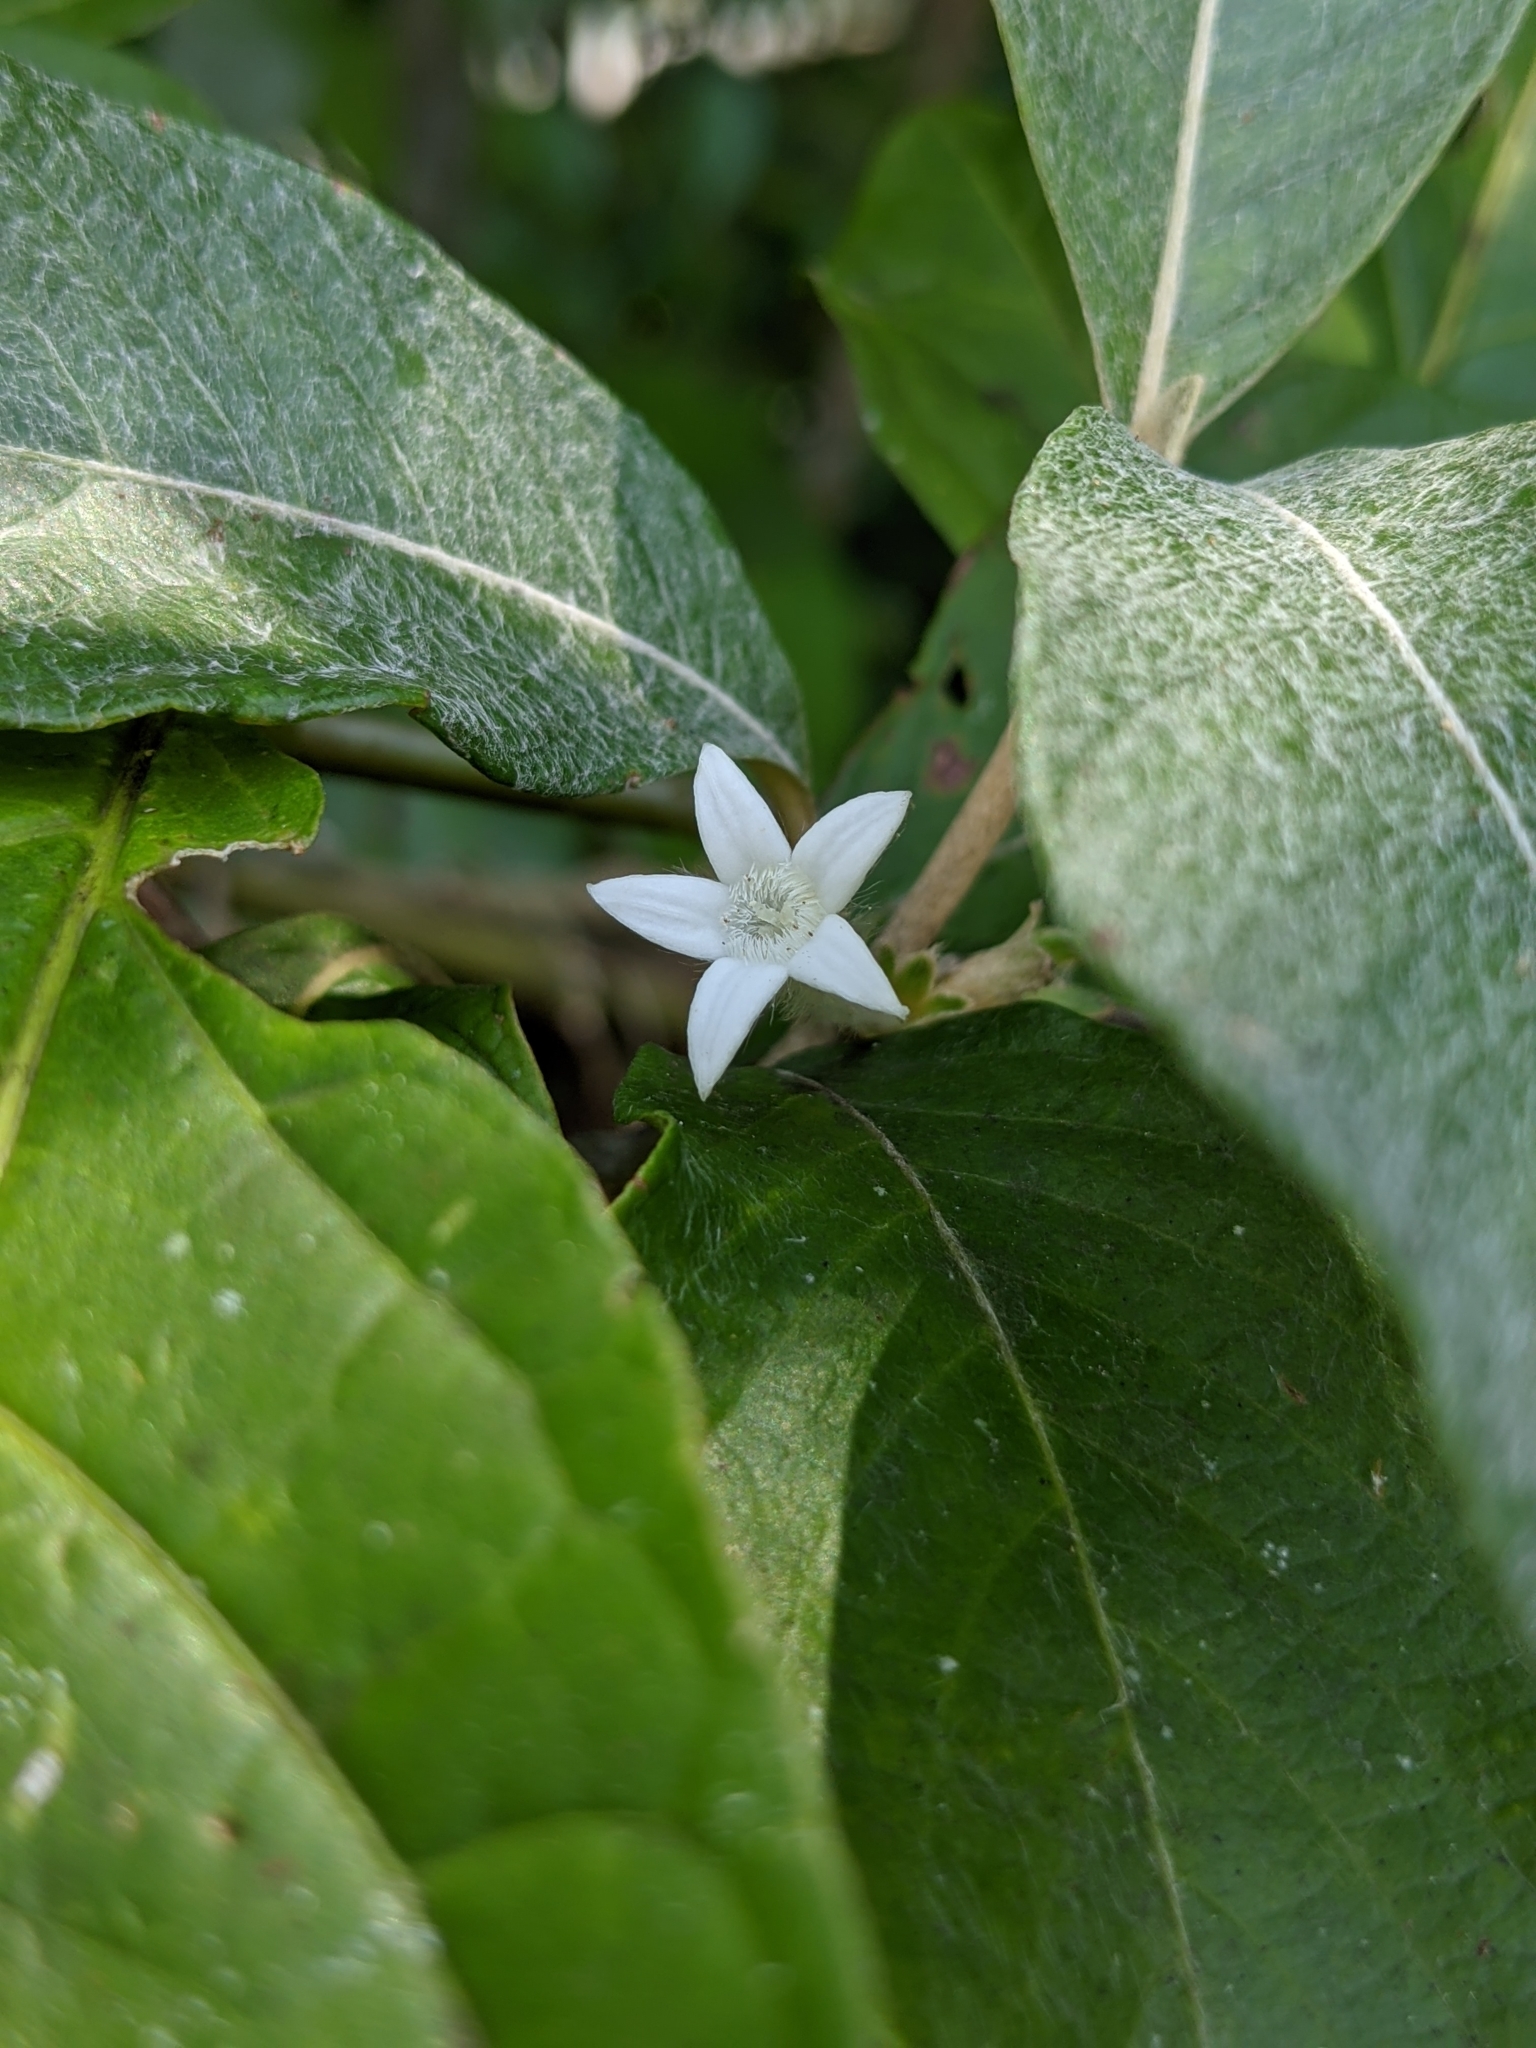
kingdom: Plantae
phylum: Tracheophyta
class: Magnoliopsida
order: Gentianales
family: Rubiaceae
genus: Sabicea
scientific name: Sabicea cinerea
